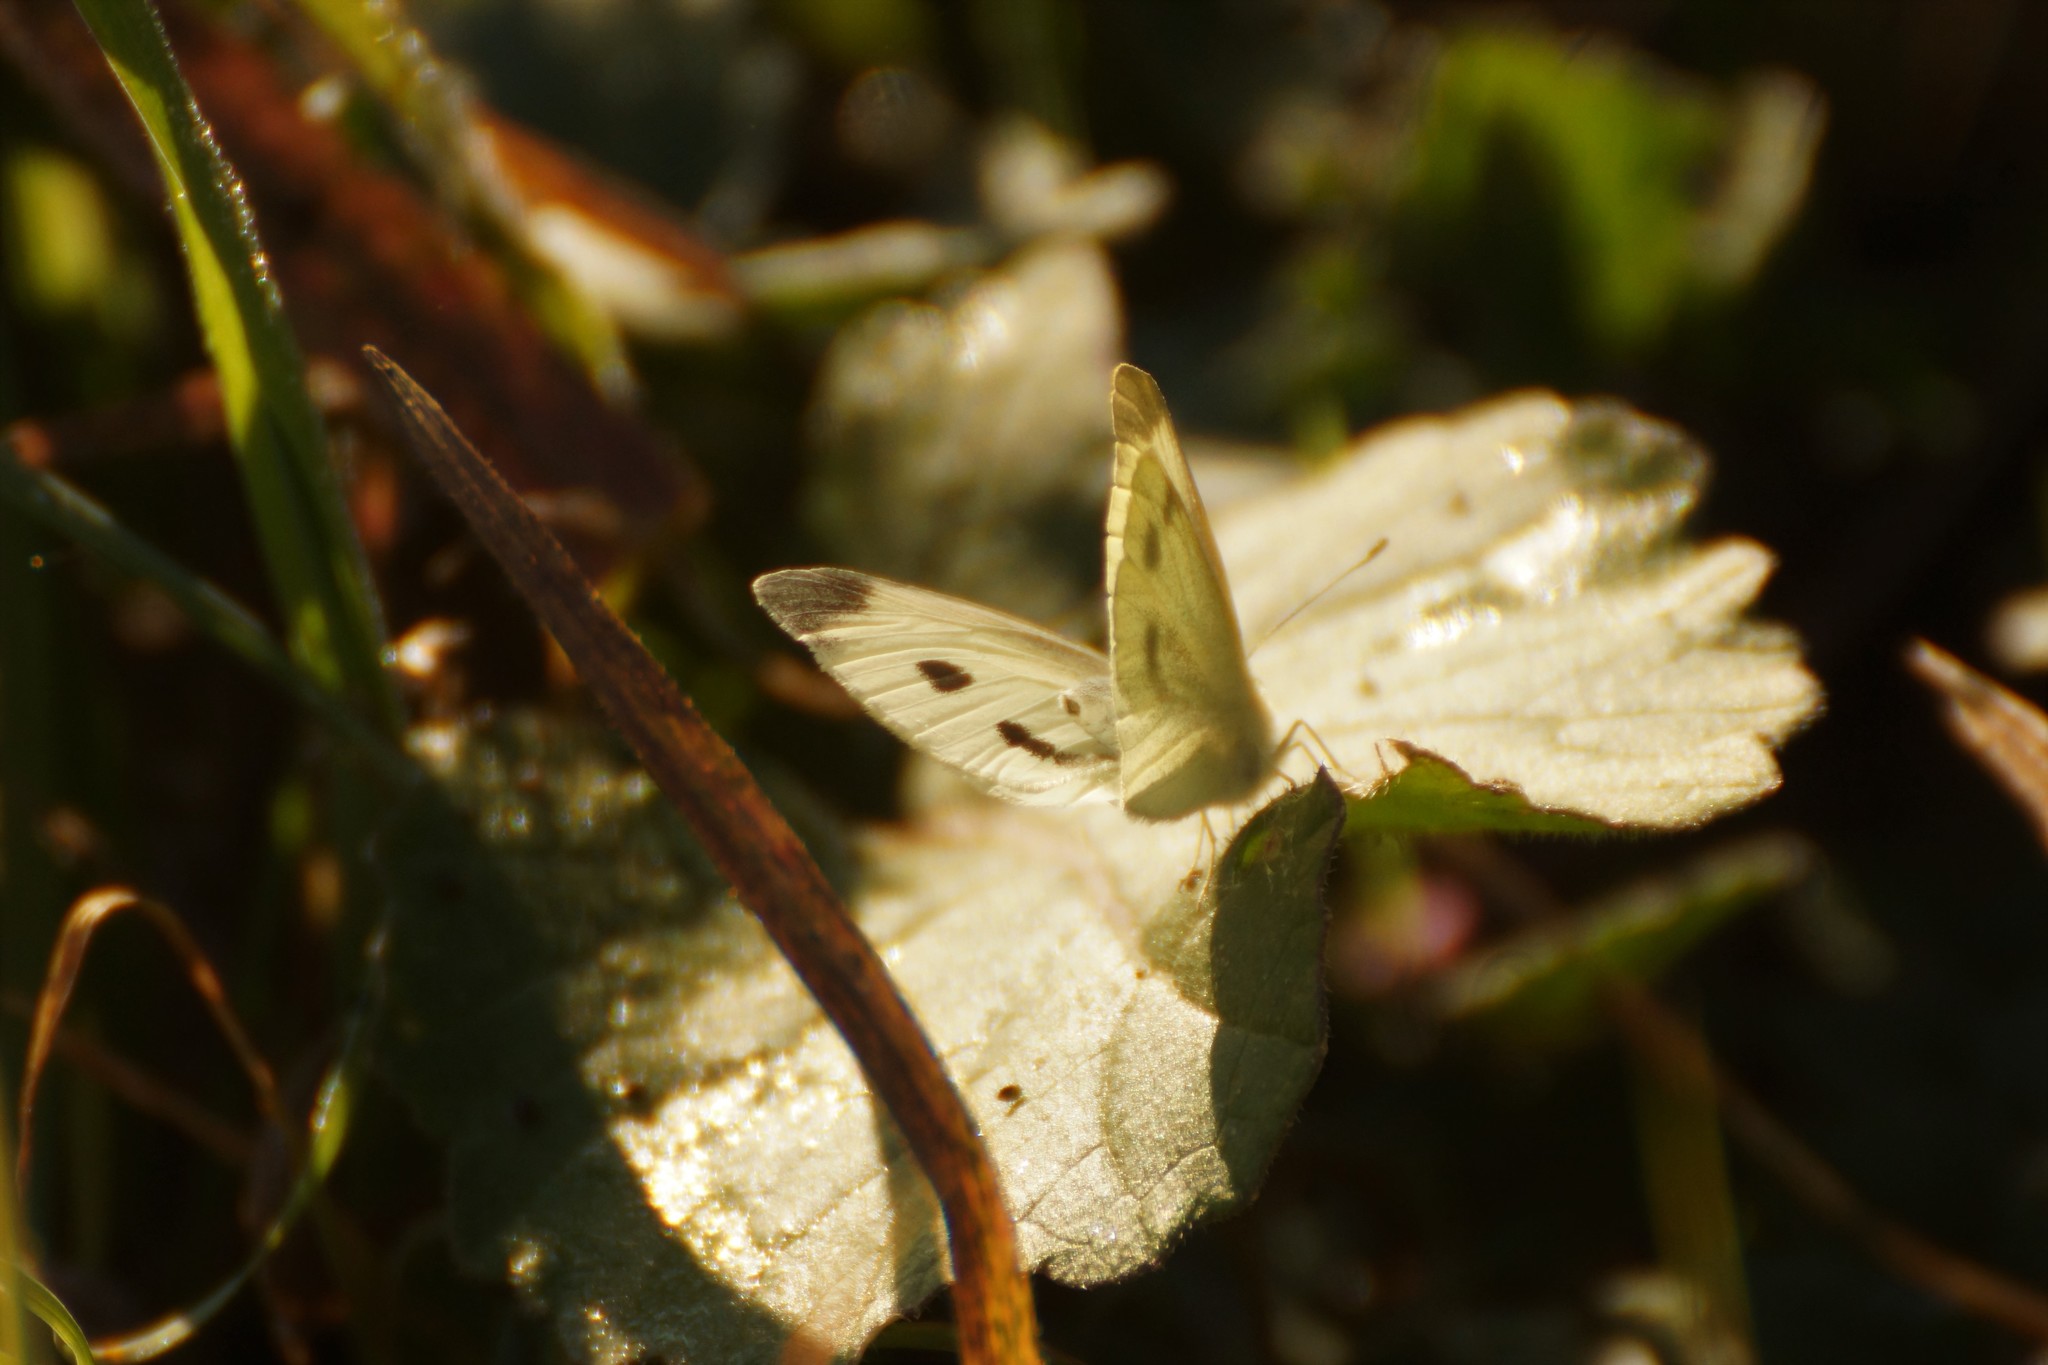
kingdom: Animalia
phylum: Arthropoda
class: Insecta
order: Lepidoptera
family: Pieridae
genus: Pieris
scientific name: Pieris rapae
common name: Small white
